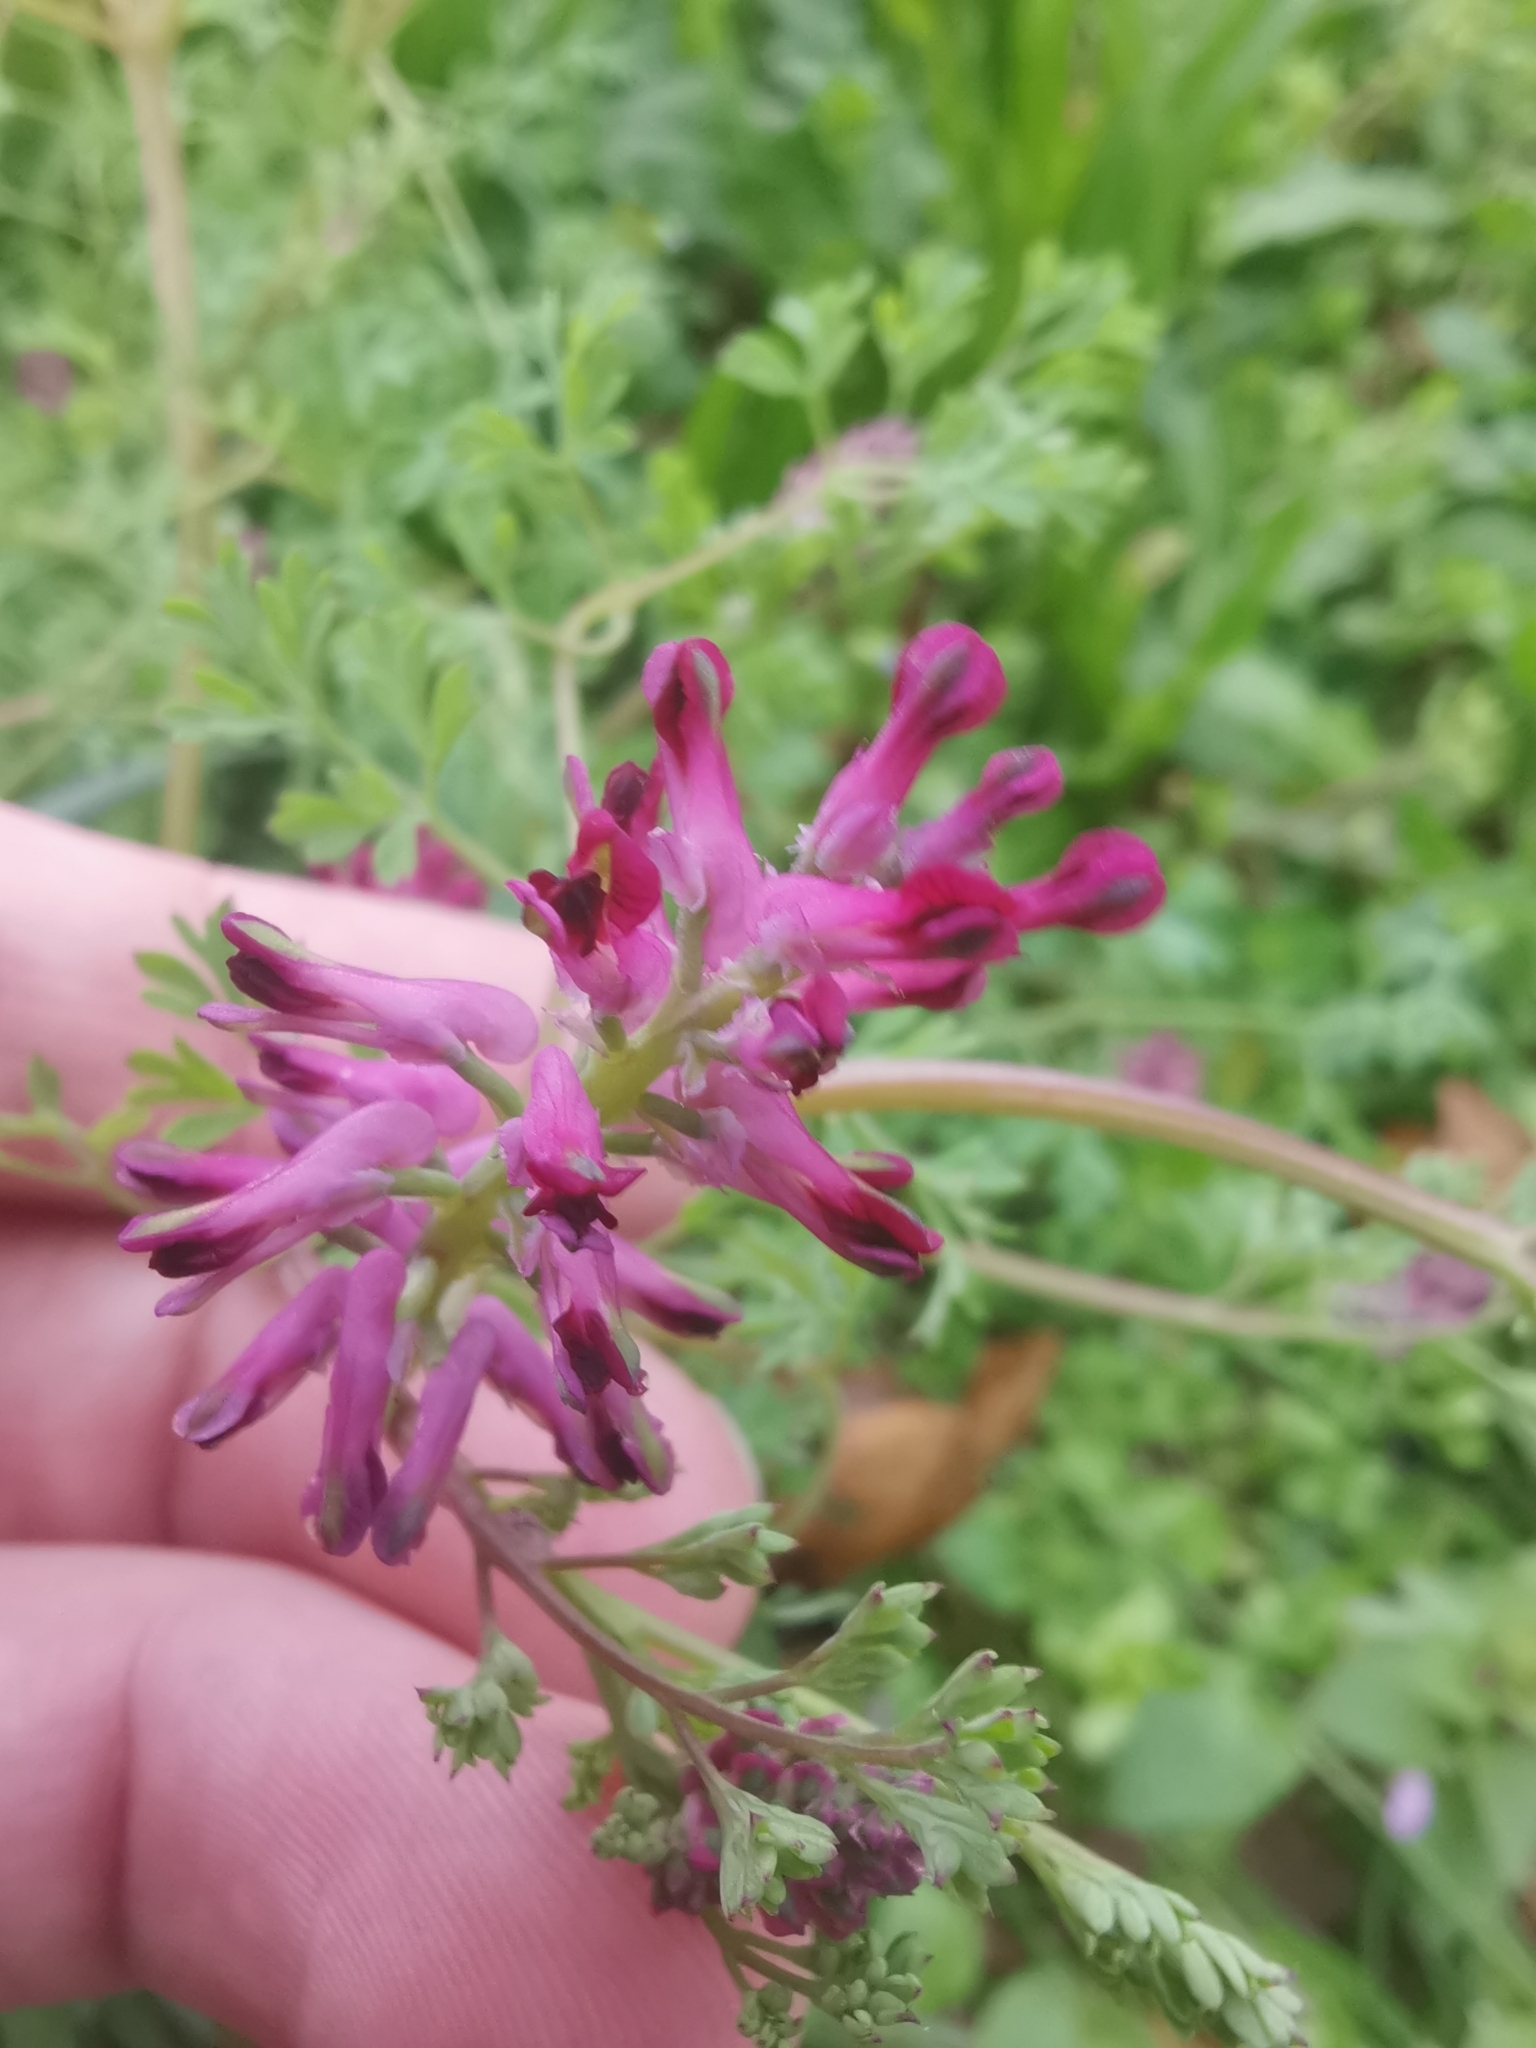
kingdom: Plantae
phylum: Tracheophyta
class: Magnoliopsida
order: Ranunculales
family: Papaveraceae
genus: Fumaria
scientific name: Fumaria officinalis
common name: Common fumitory
